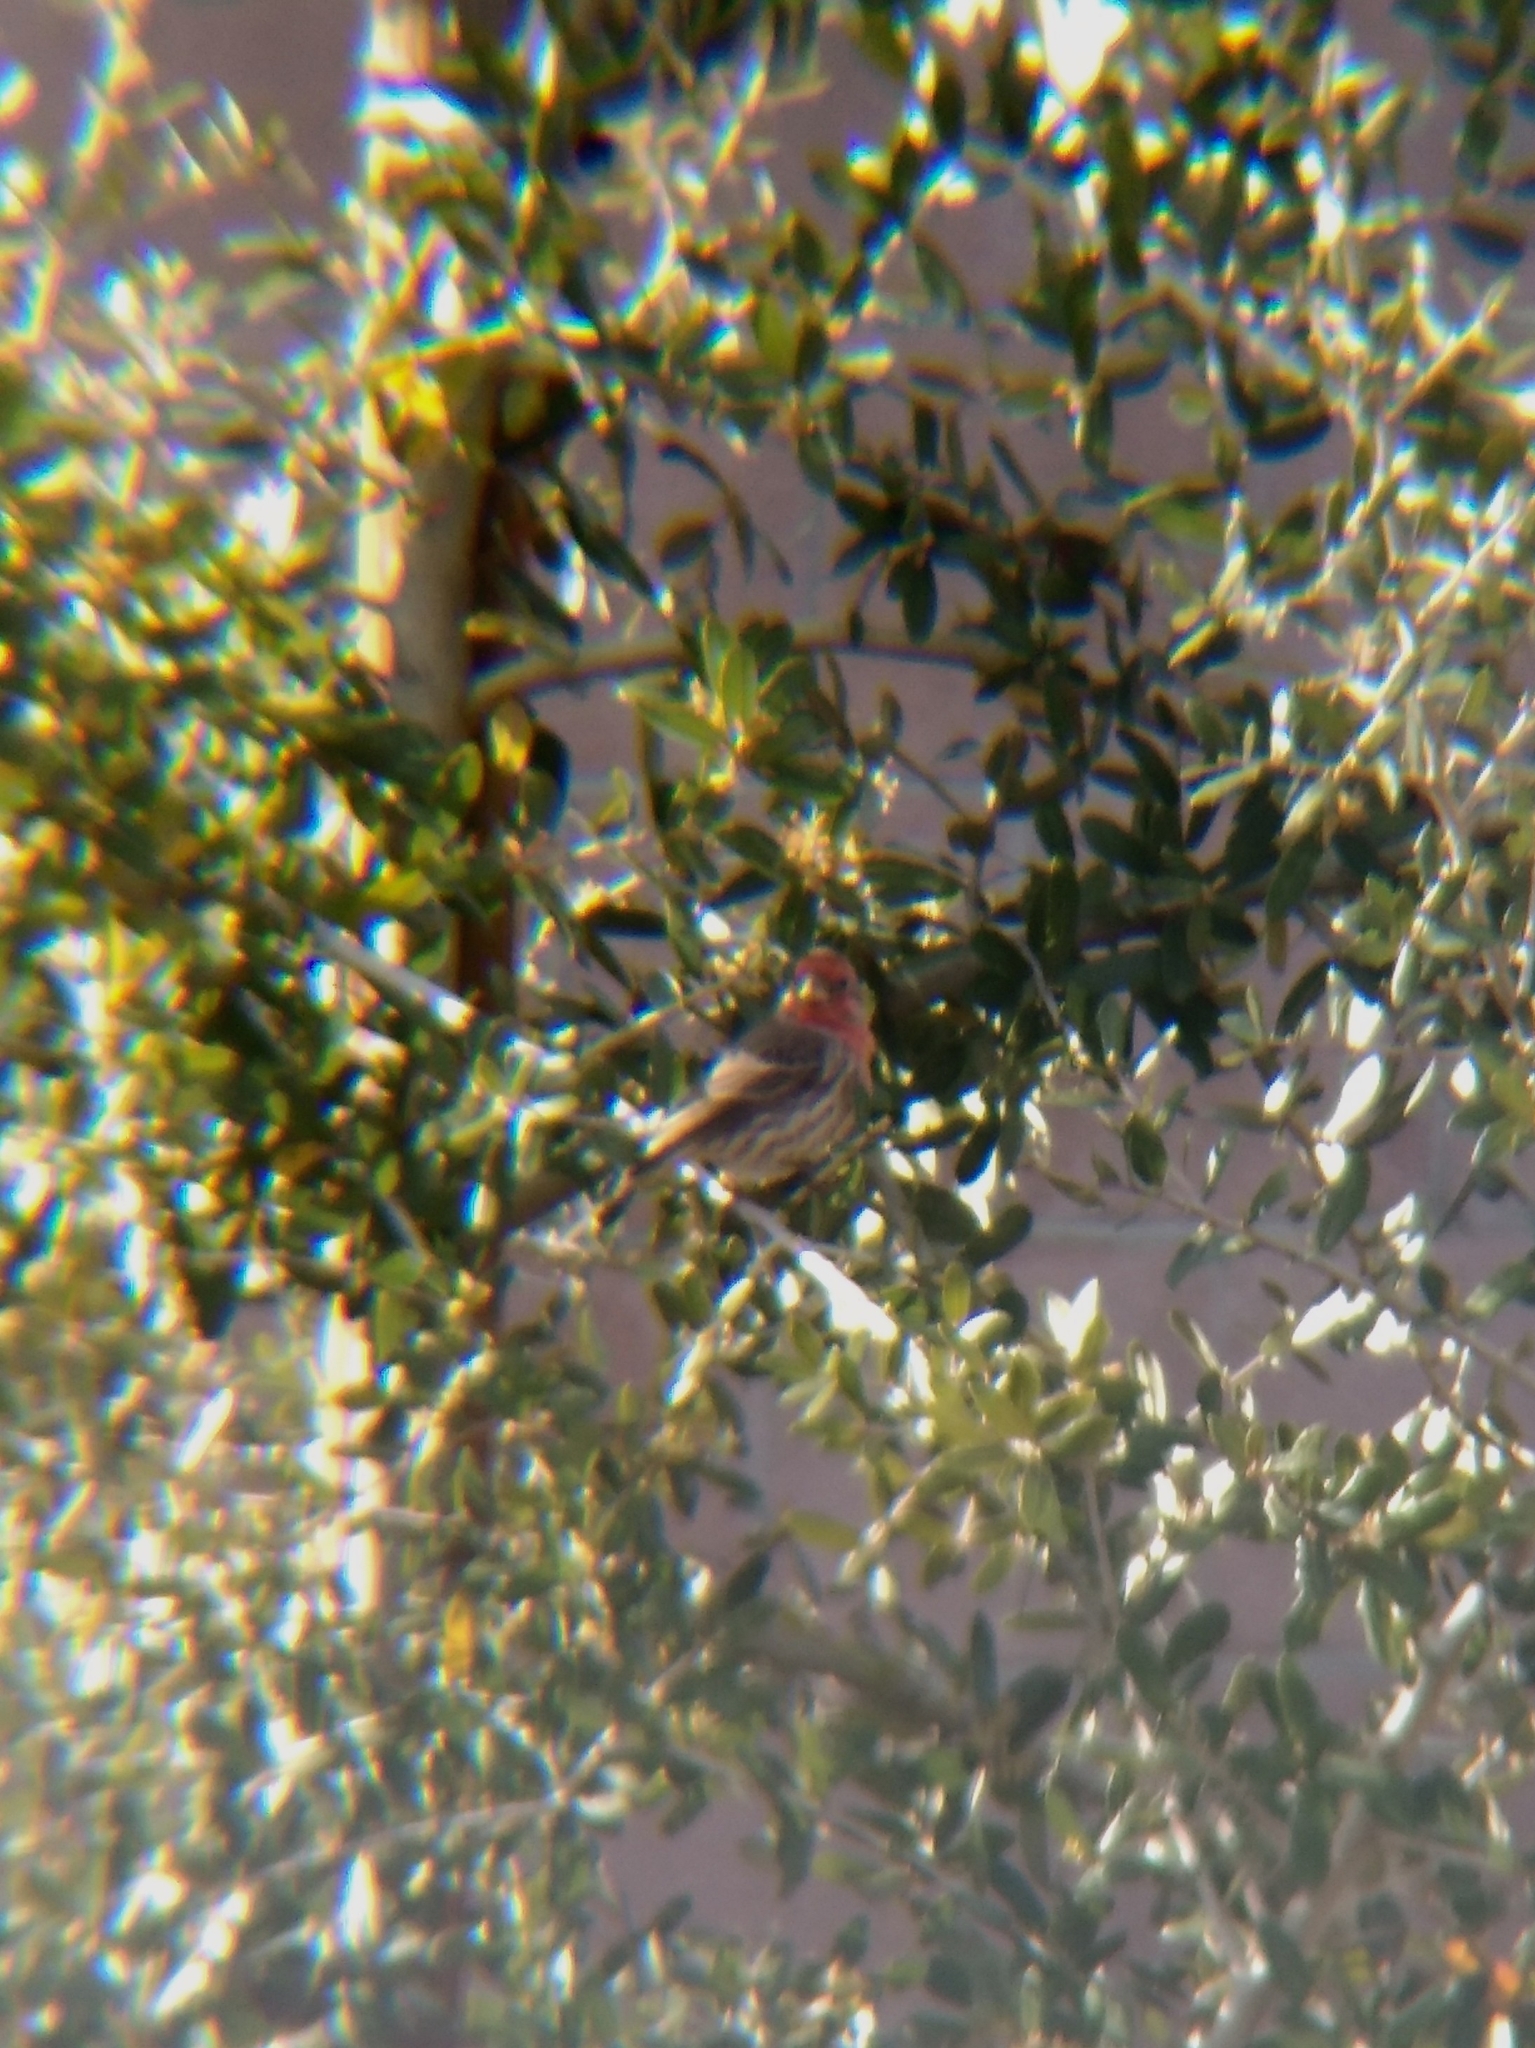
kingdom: Animalia
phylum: Chordata
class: Aves
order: Passeriformes
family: Fringillidae
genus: Haemorhous
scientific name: Haemorhous mexicanus
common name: House finch
